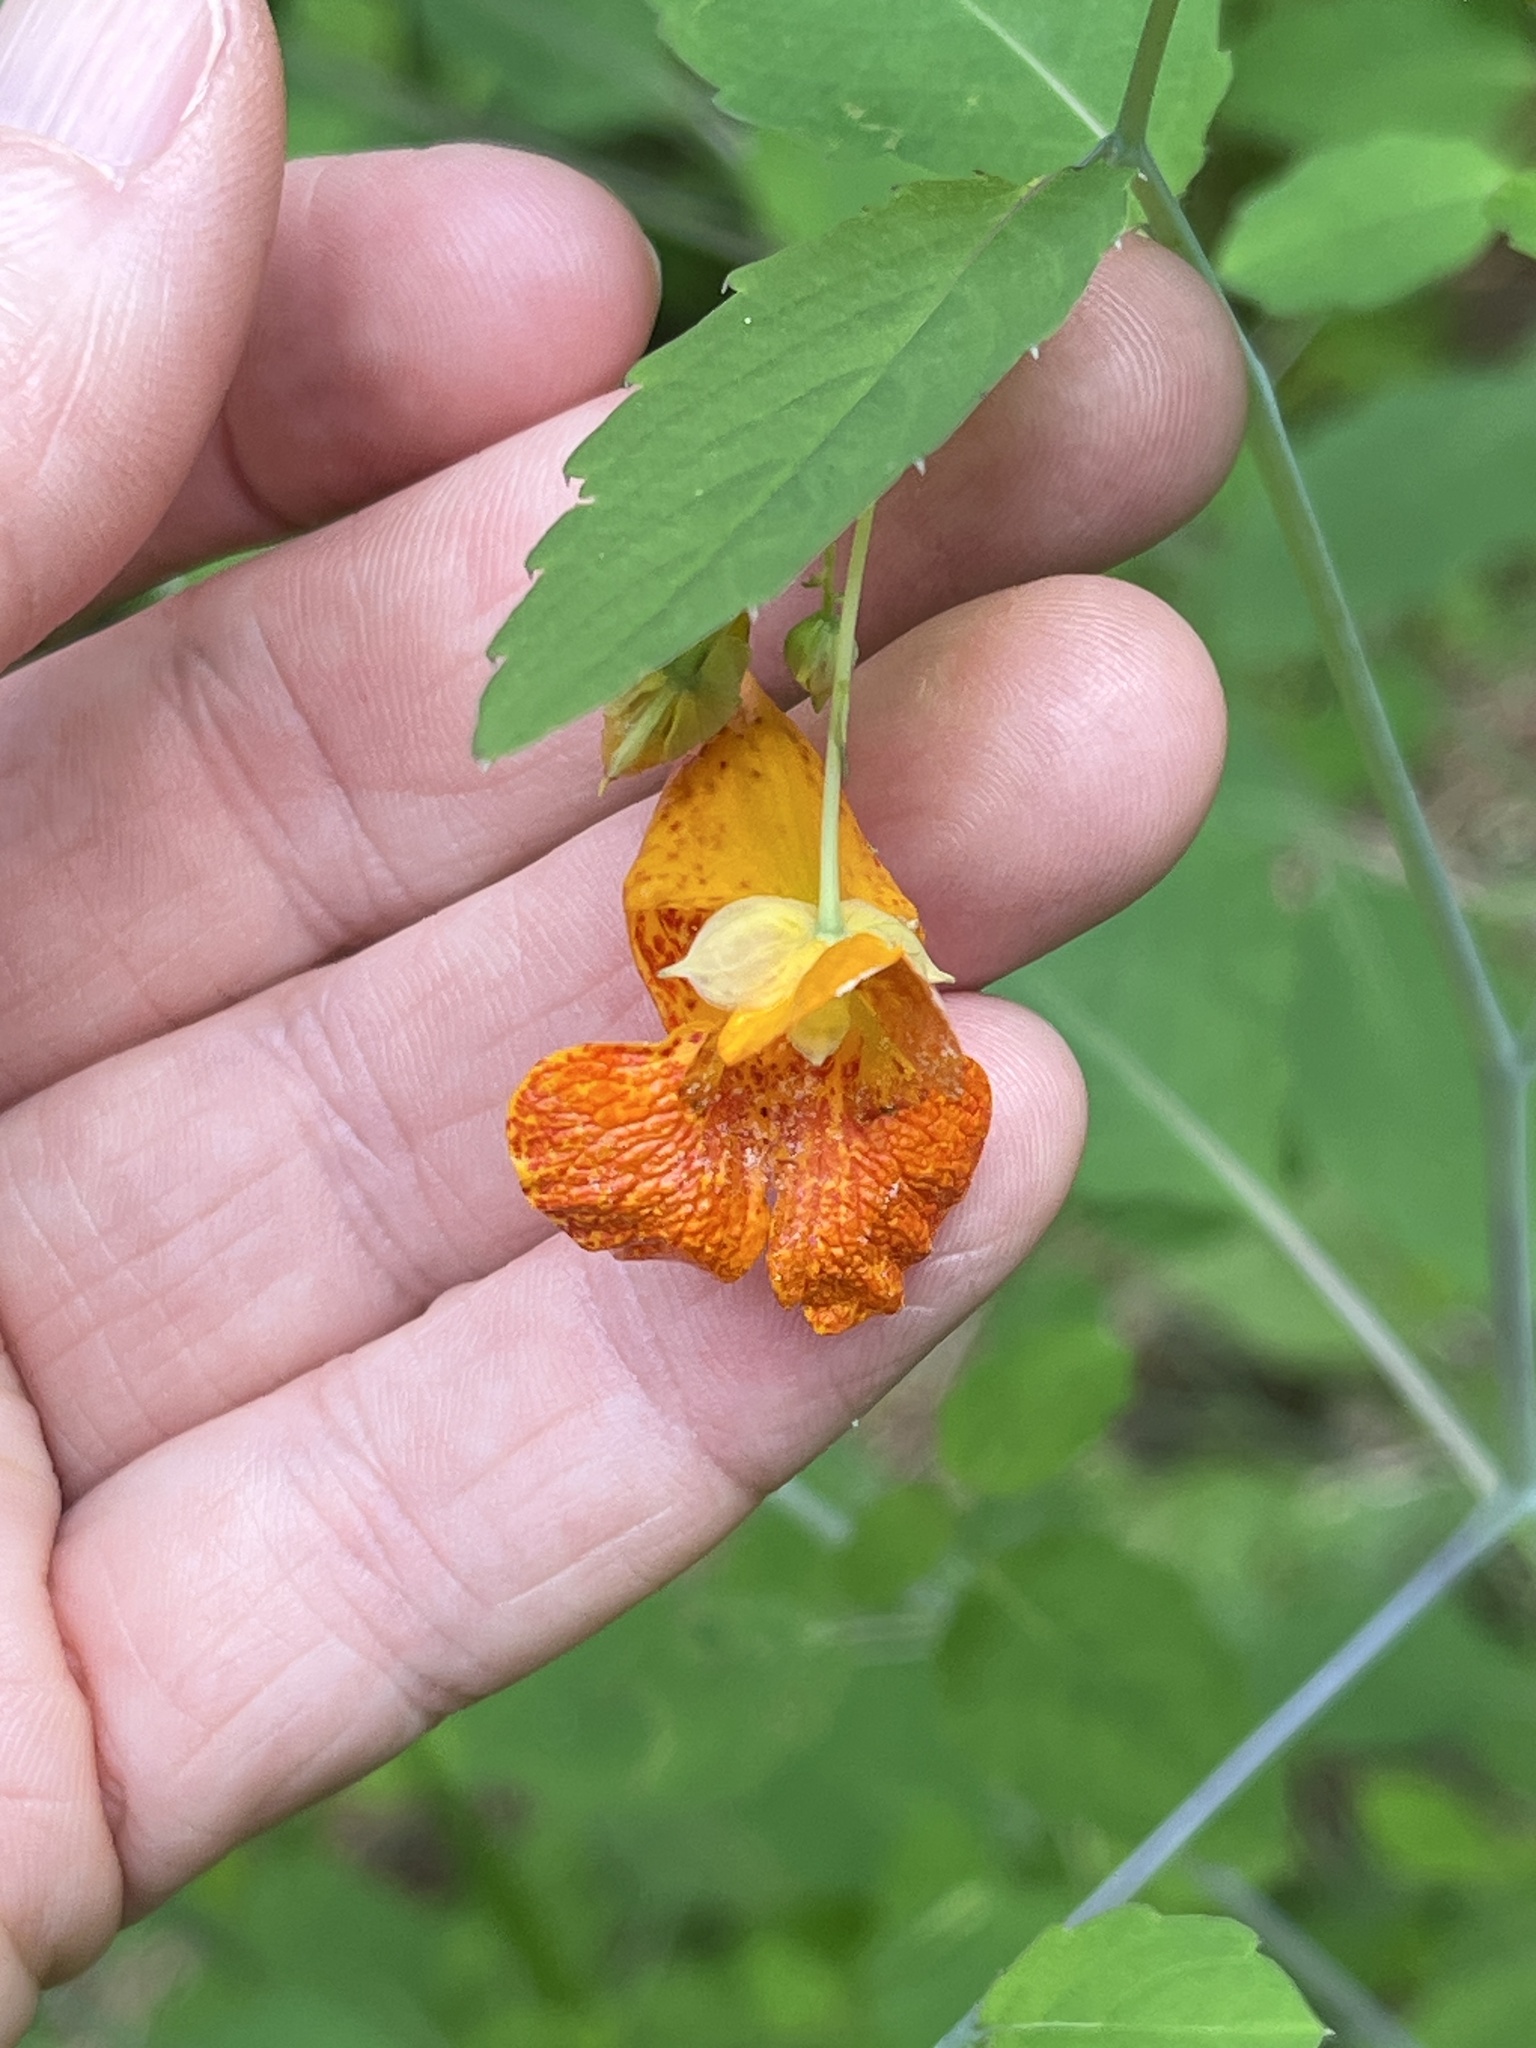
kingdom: Plantae
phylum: Tracheophyta
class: Magnoliopsida
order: Ericales
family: Balsaminaceae
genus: Impatiens
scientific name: Impatiens capensis
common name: Orange balsam
